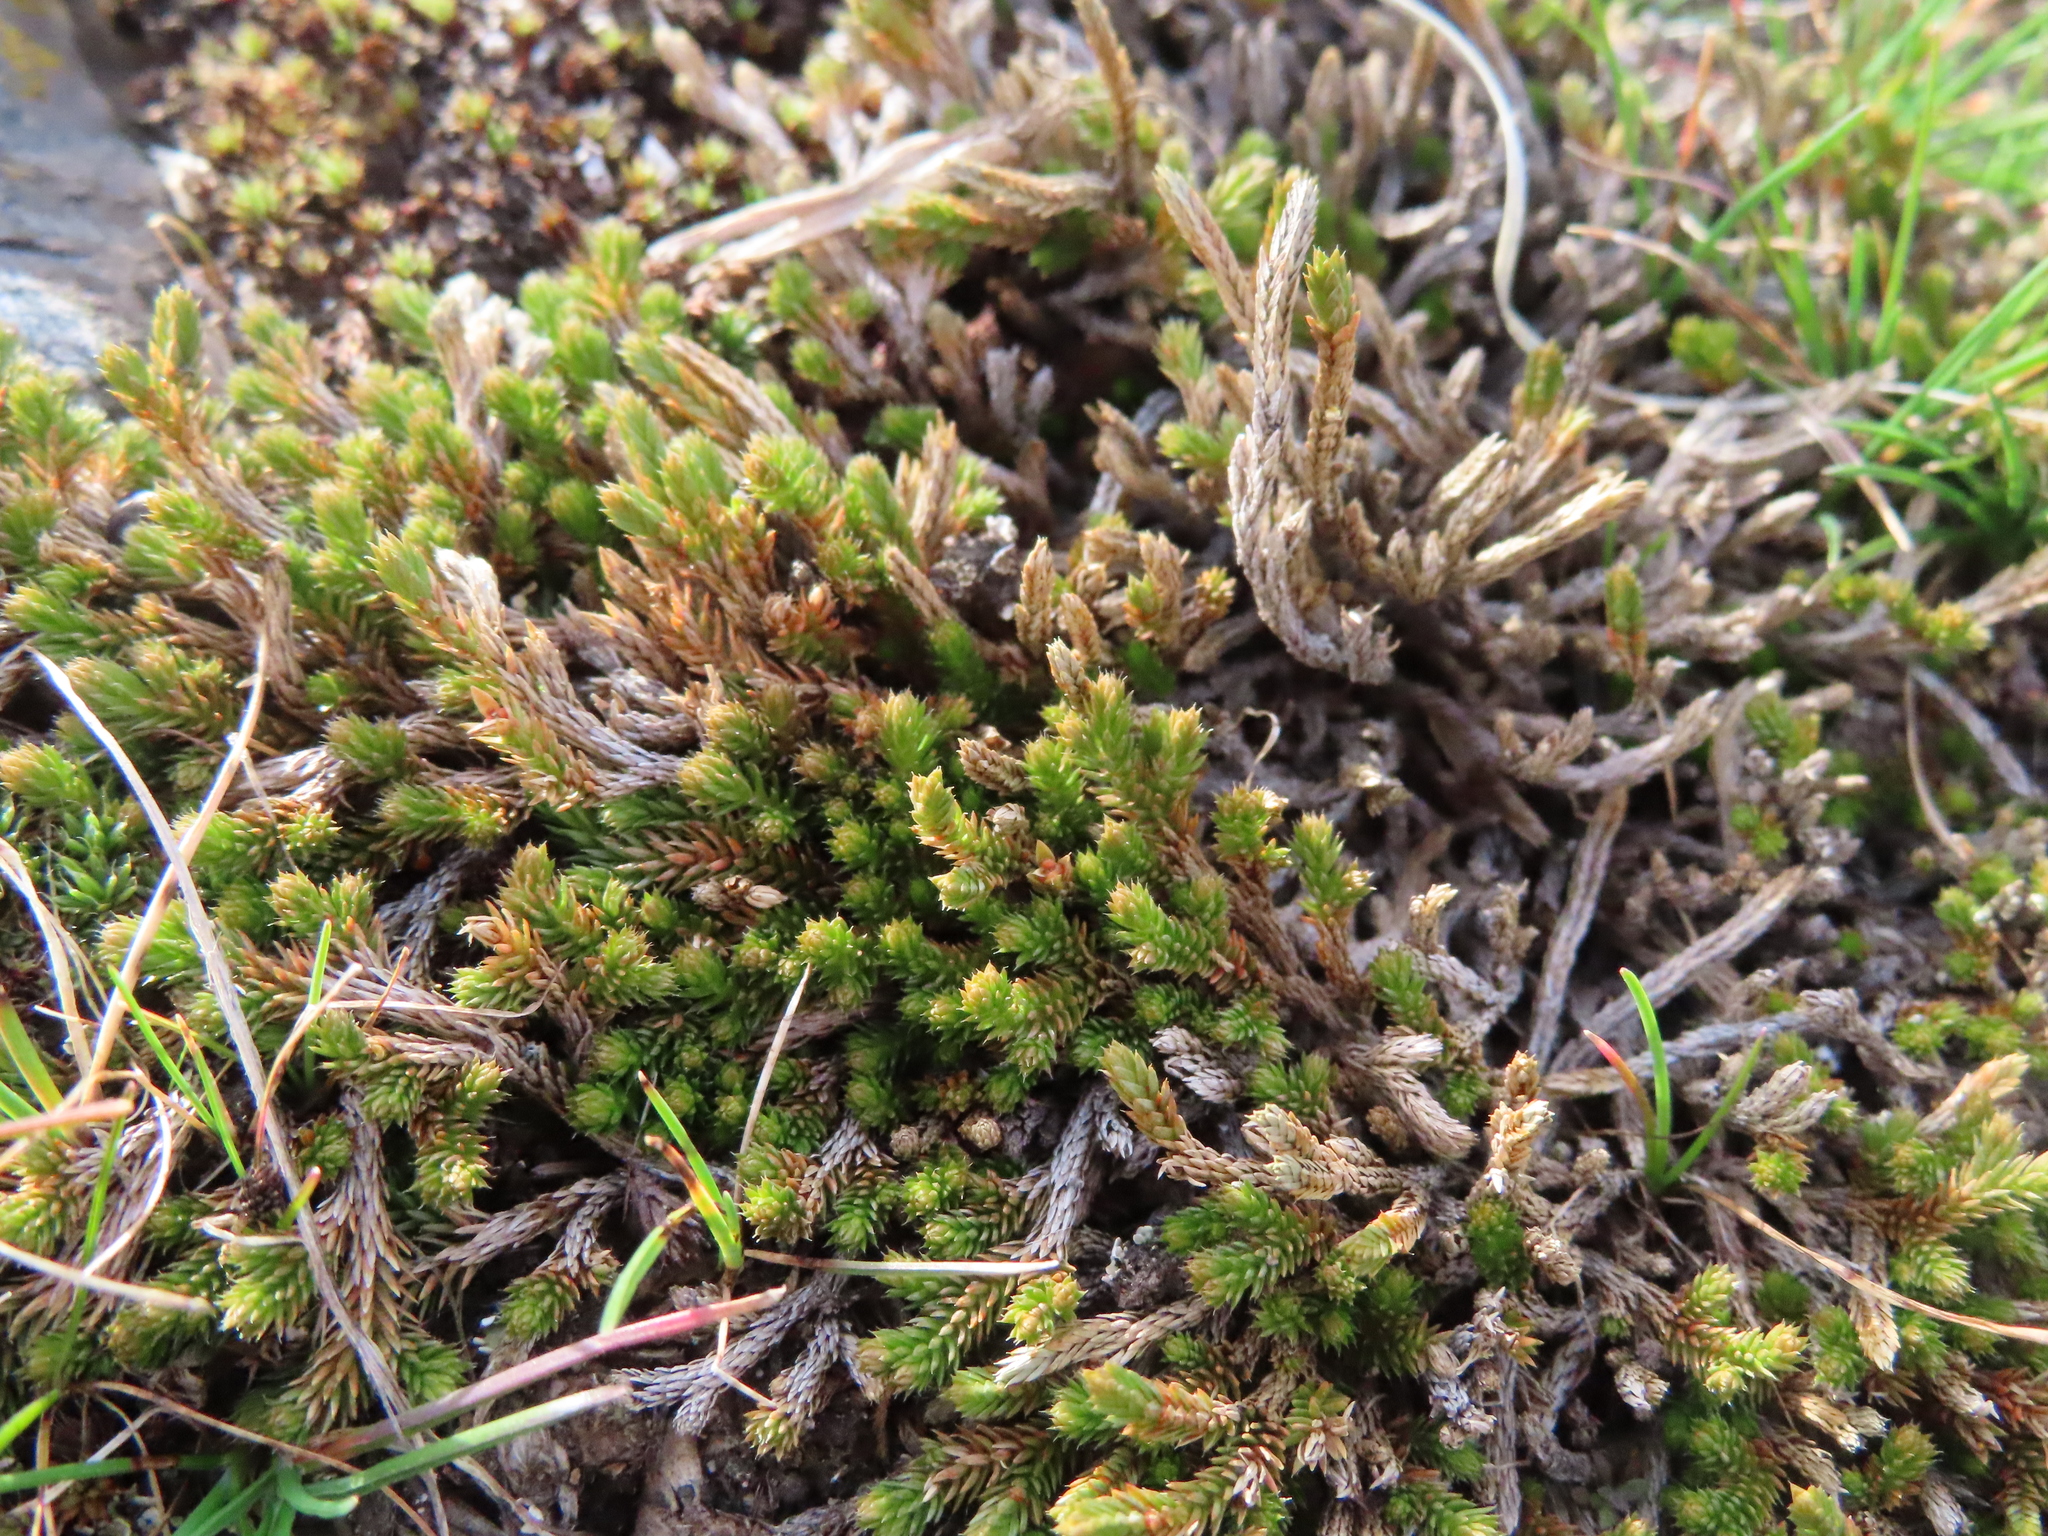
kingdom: Plantae
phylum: Tracheophyta
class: Lycopodiopsida
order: Selaginellales
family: Selaginellaceae
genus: Selaginella
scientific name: Selaginella wallacei
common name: Wallace's selaginella
